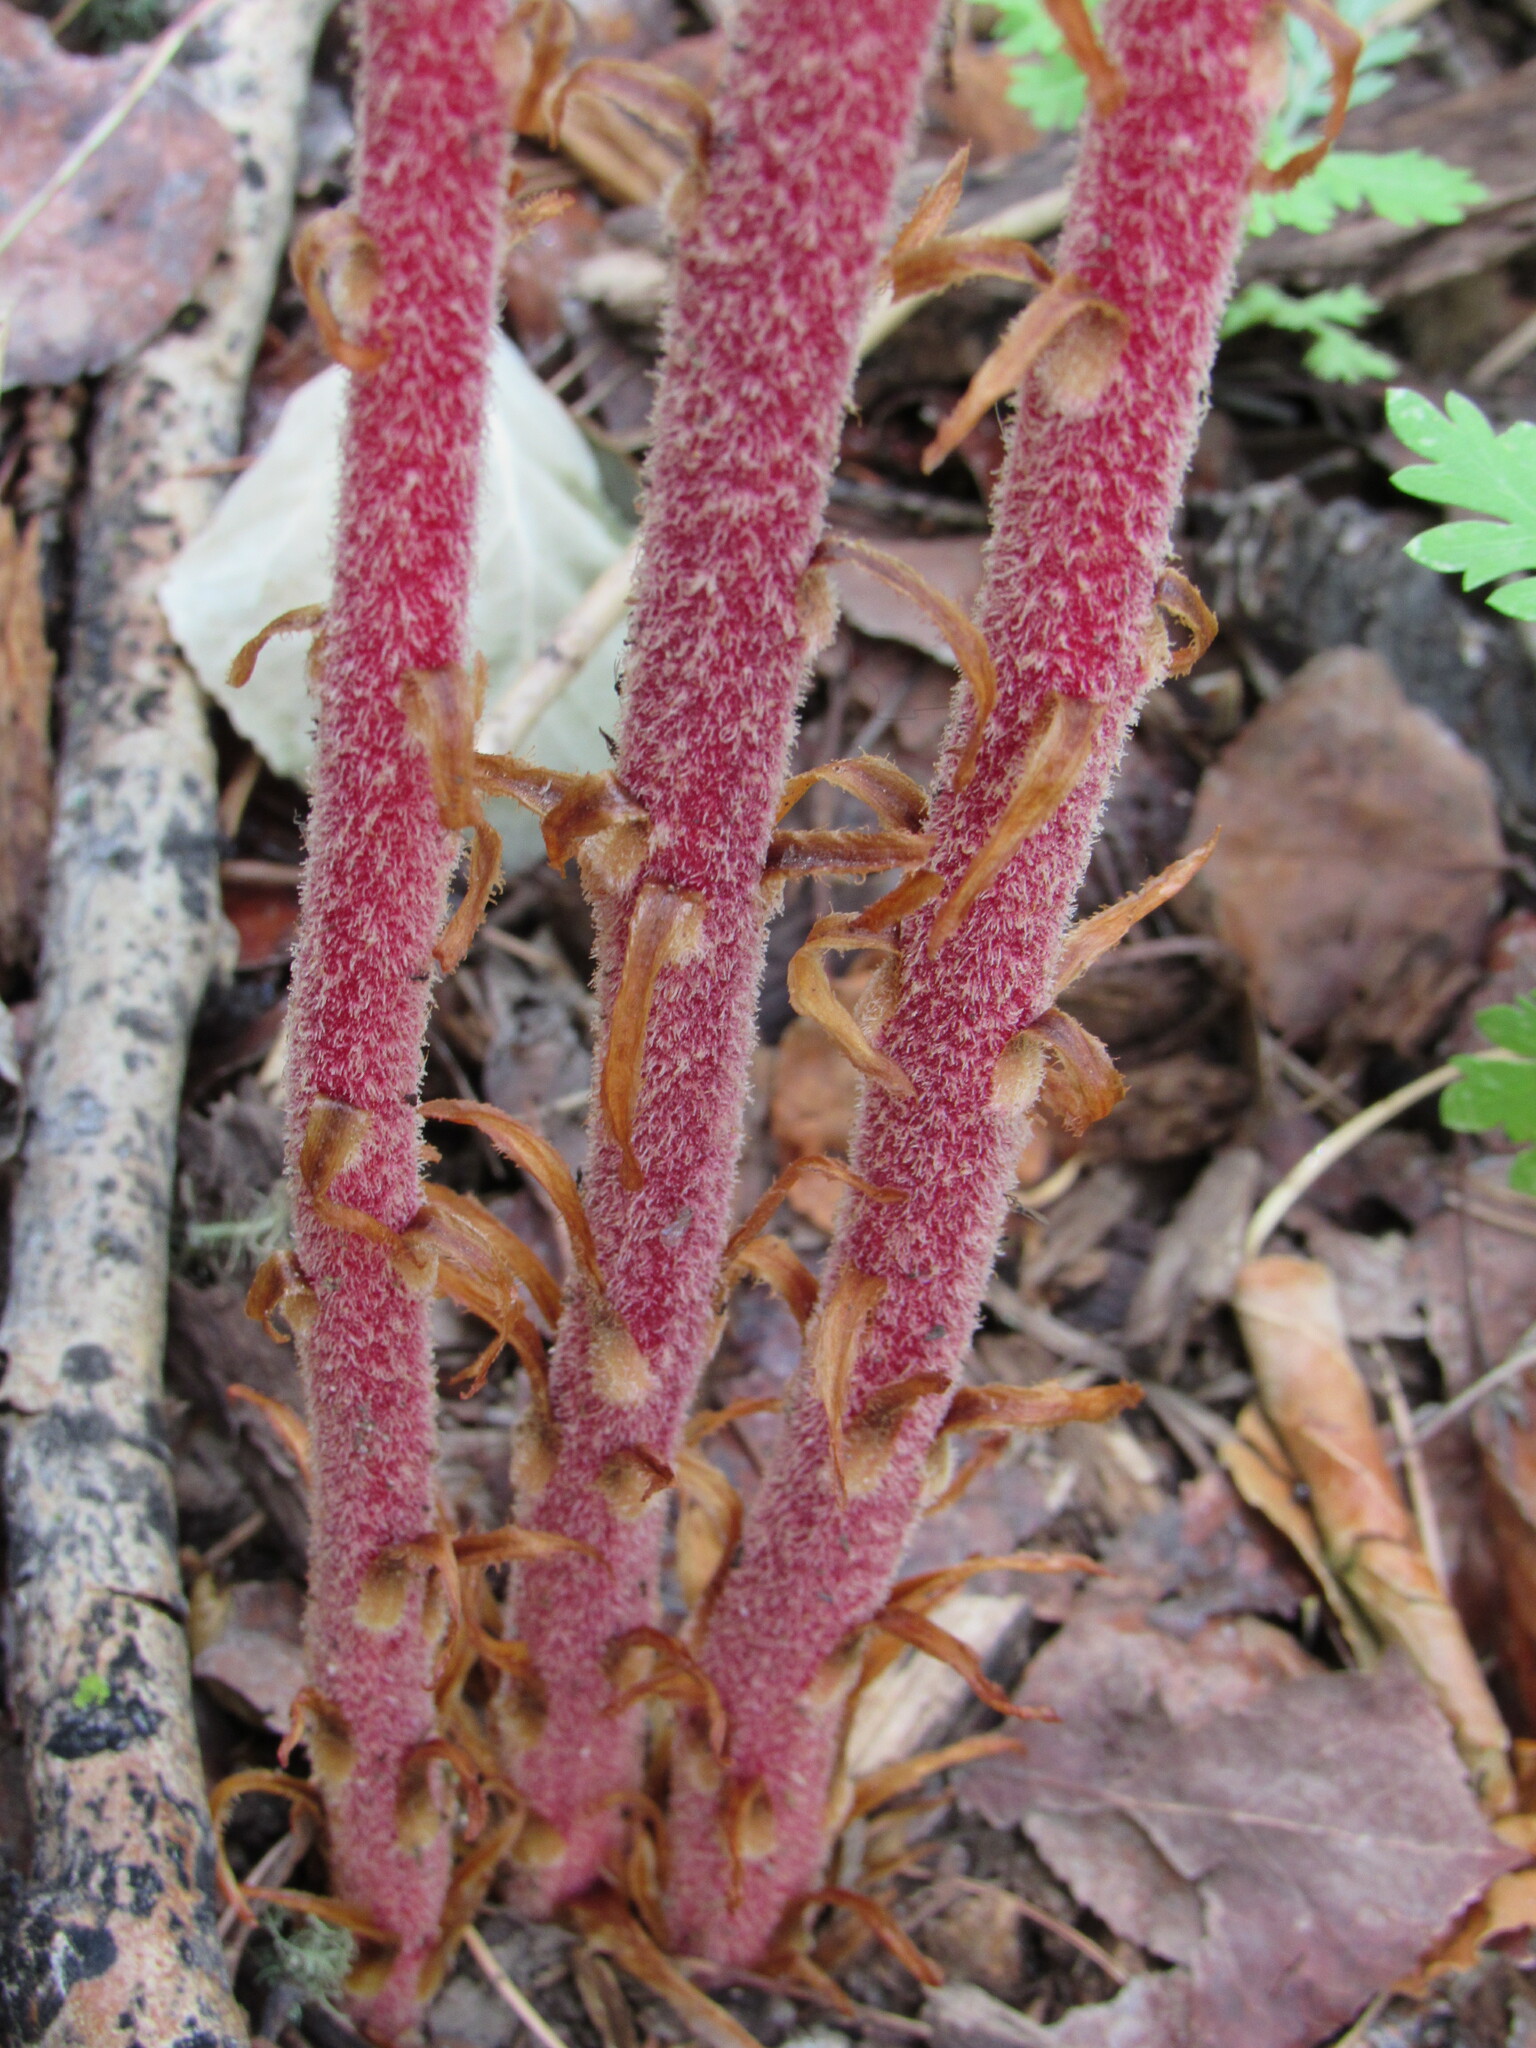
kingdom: Plantae
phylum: Tracheophyta
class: Magnoliopsida
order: Ericales
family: Ericaceae
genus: Pterospora
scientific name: Pterospora andromedea
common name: Giant bird's-nest
